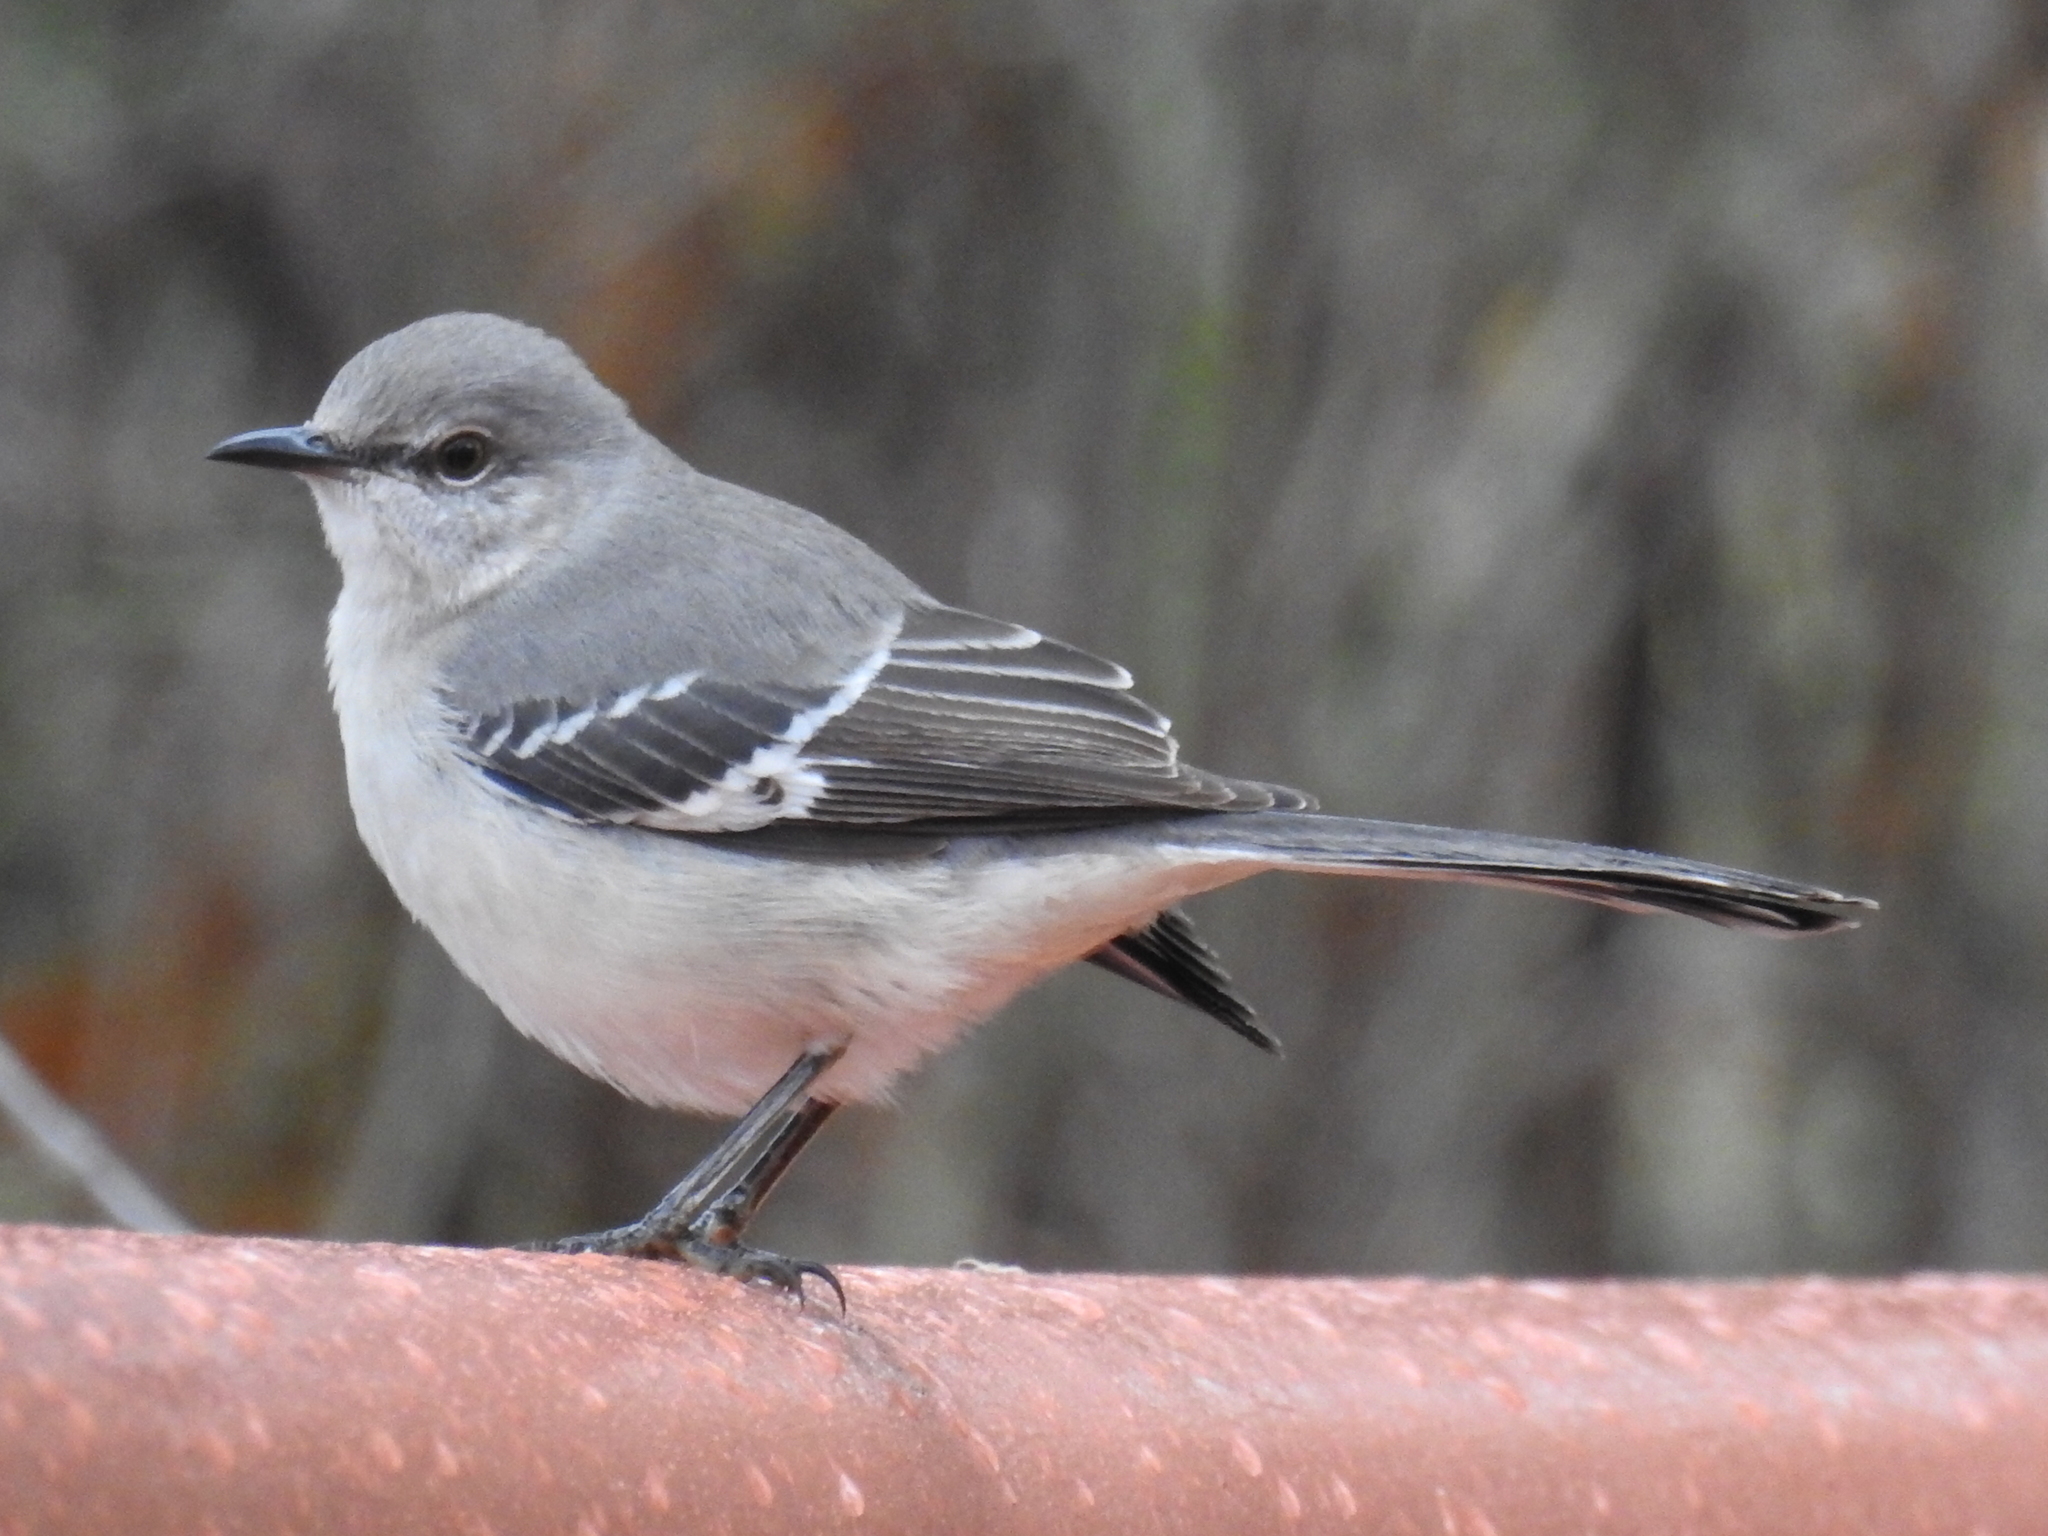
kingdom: Animalia
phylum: Chordata
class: Aves
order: Passeriformes
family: Mimidae
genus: Mimus
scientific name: Mimus polyglottos
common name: Northern mockingbird
